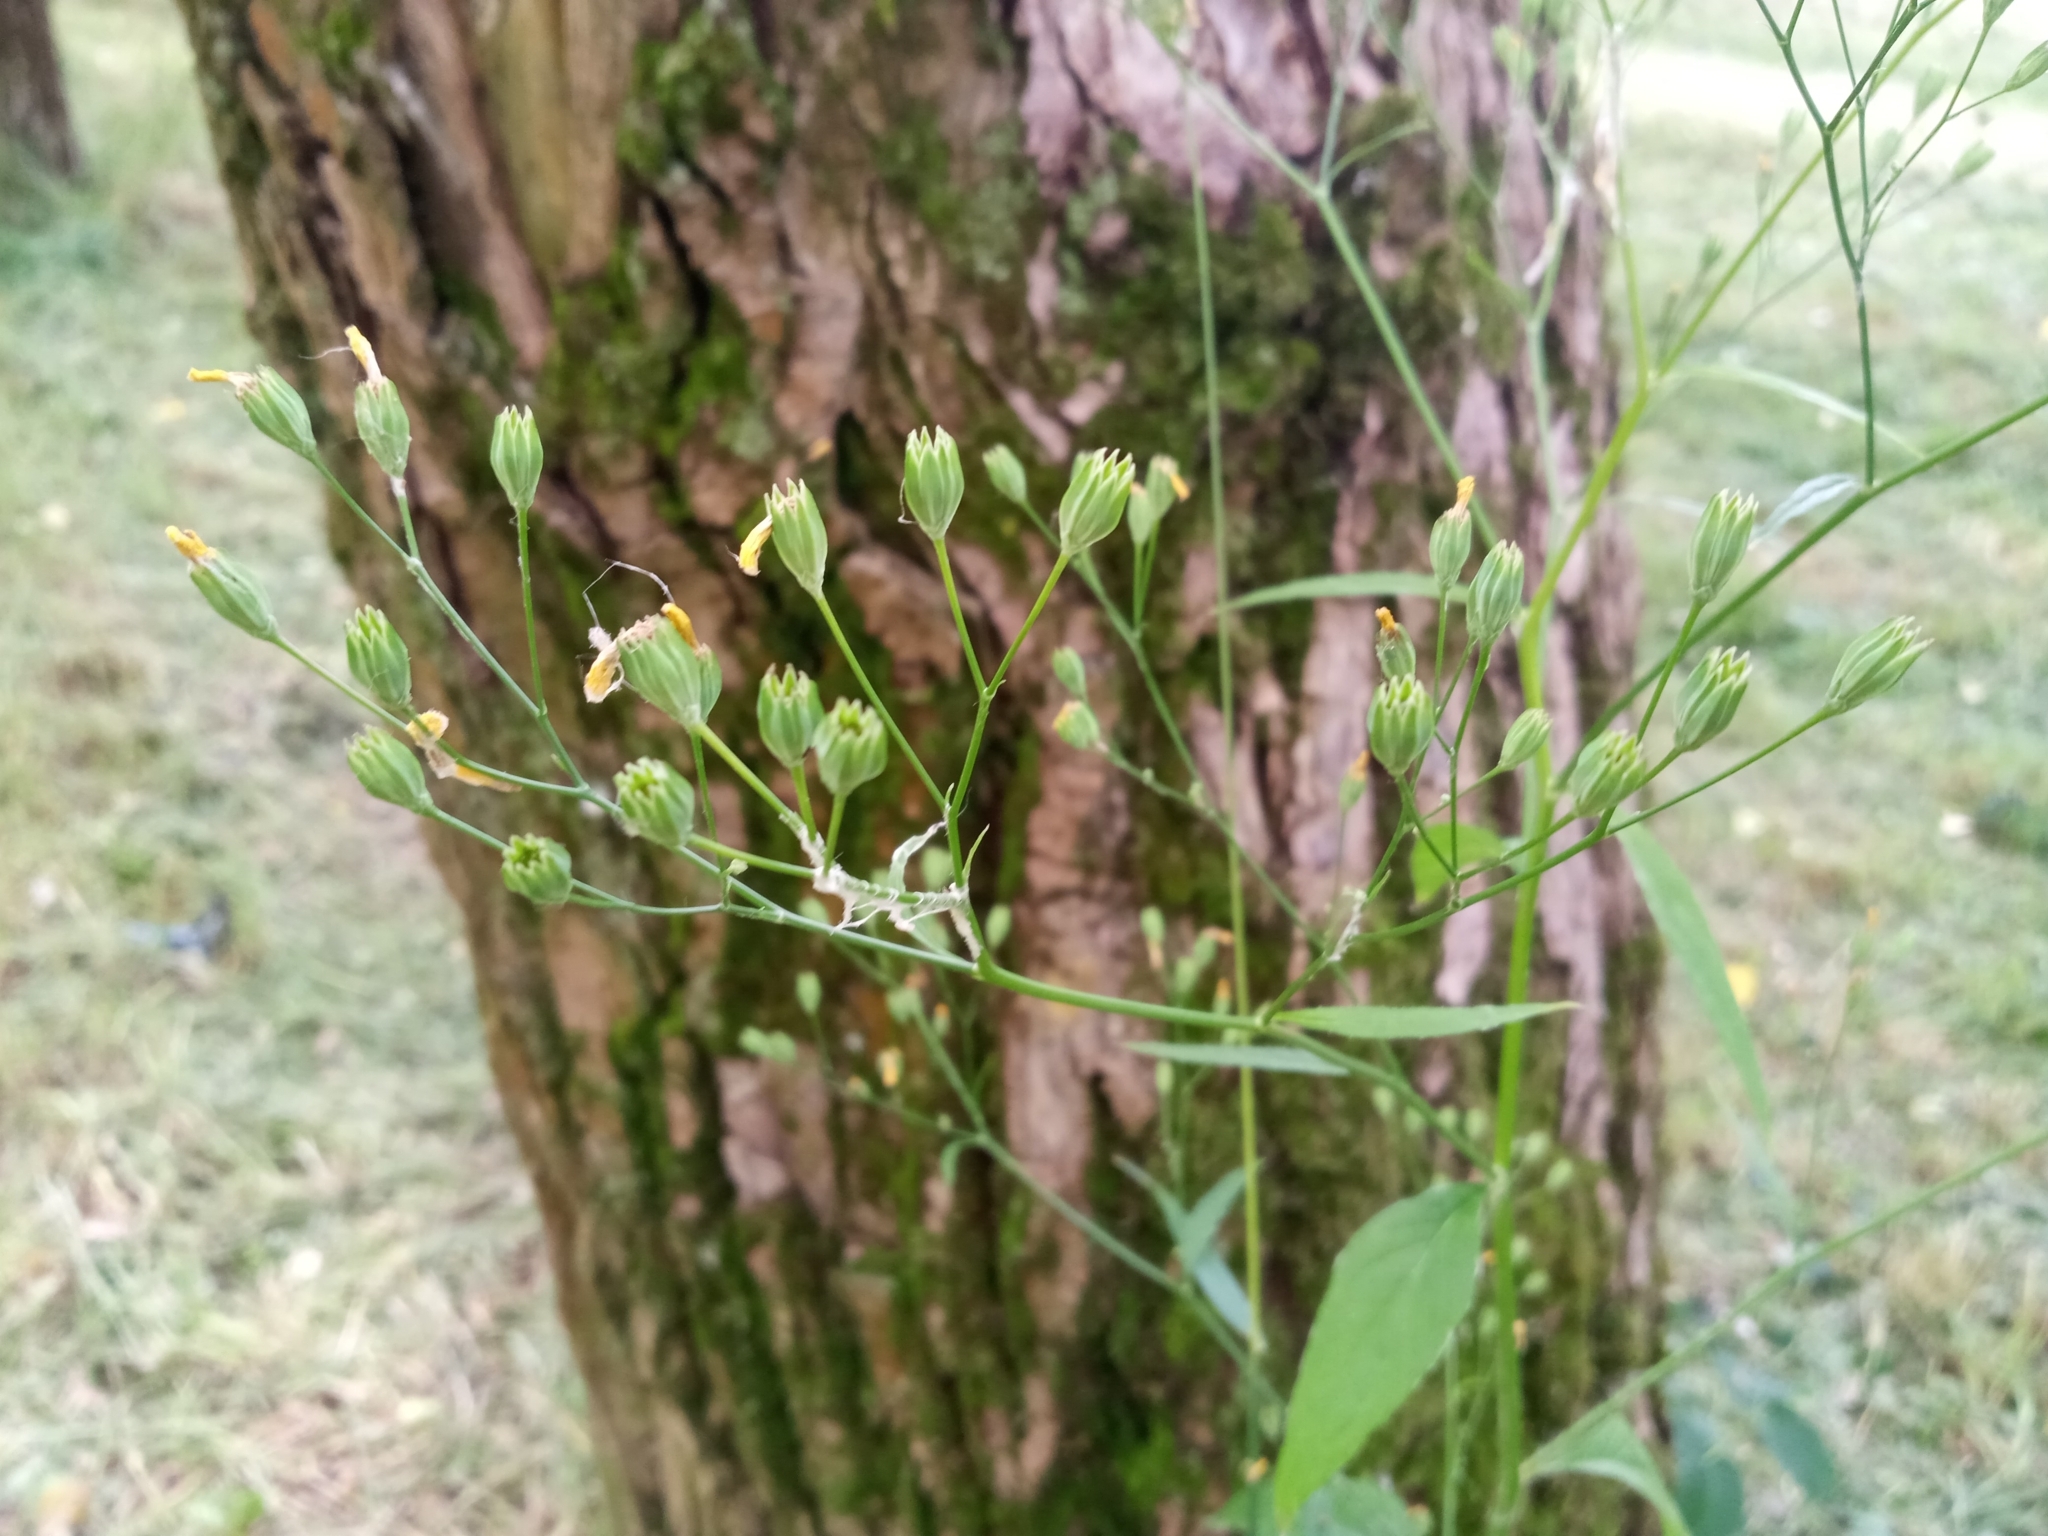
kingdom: Plantae
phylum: Tracheophyta
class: Magnoliopsida
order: Asterales
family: Asteraceae
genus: Lapsana
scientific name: Lapsana communis
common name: Nipplewort
